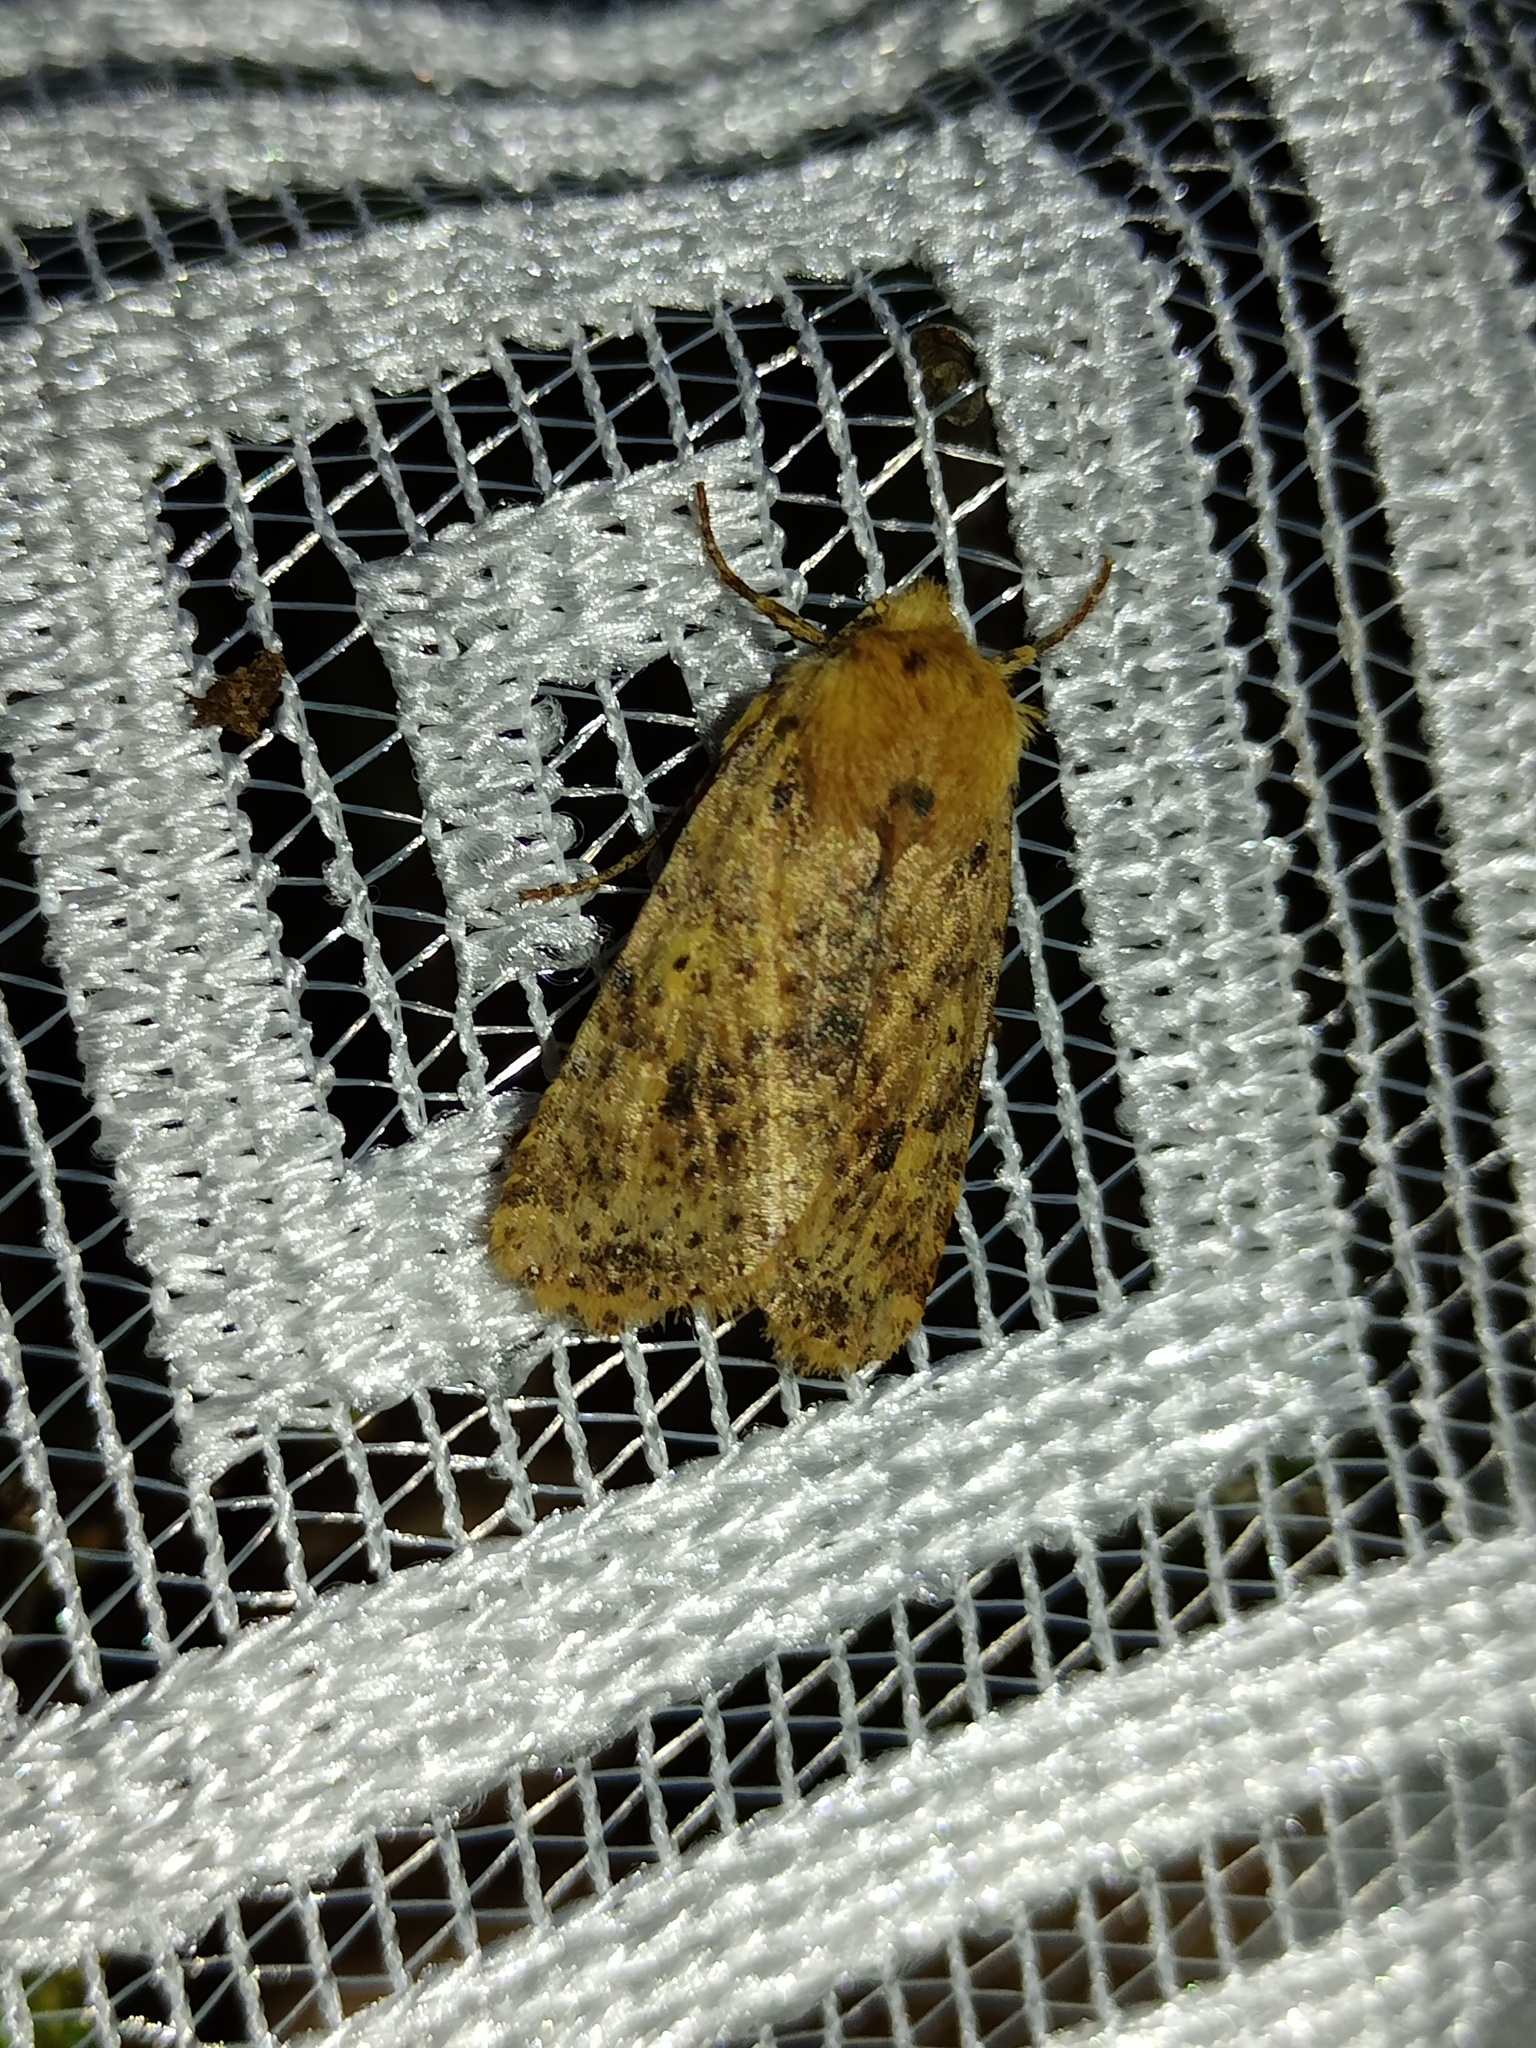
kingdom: Animalia
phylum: Arthropoda
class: Insecta
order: Lepidoptera
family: Noctuidae
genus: Conistra
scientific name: Conistra rubiginea
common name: Dotted chestnut
